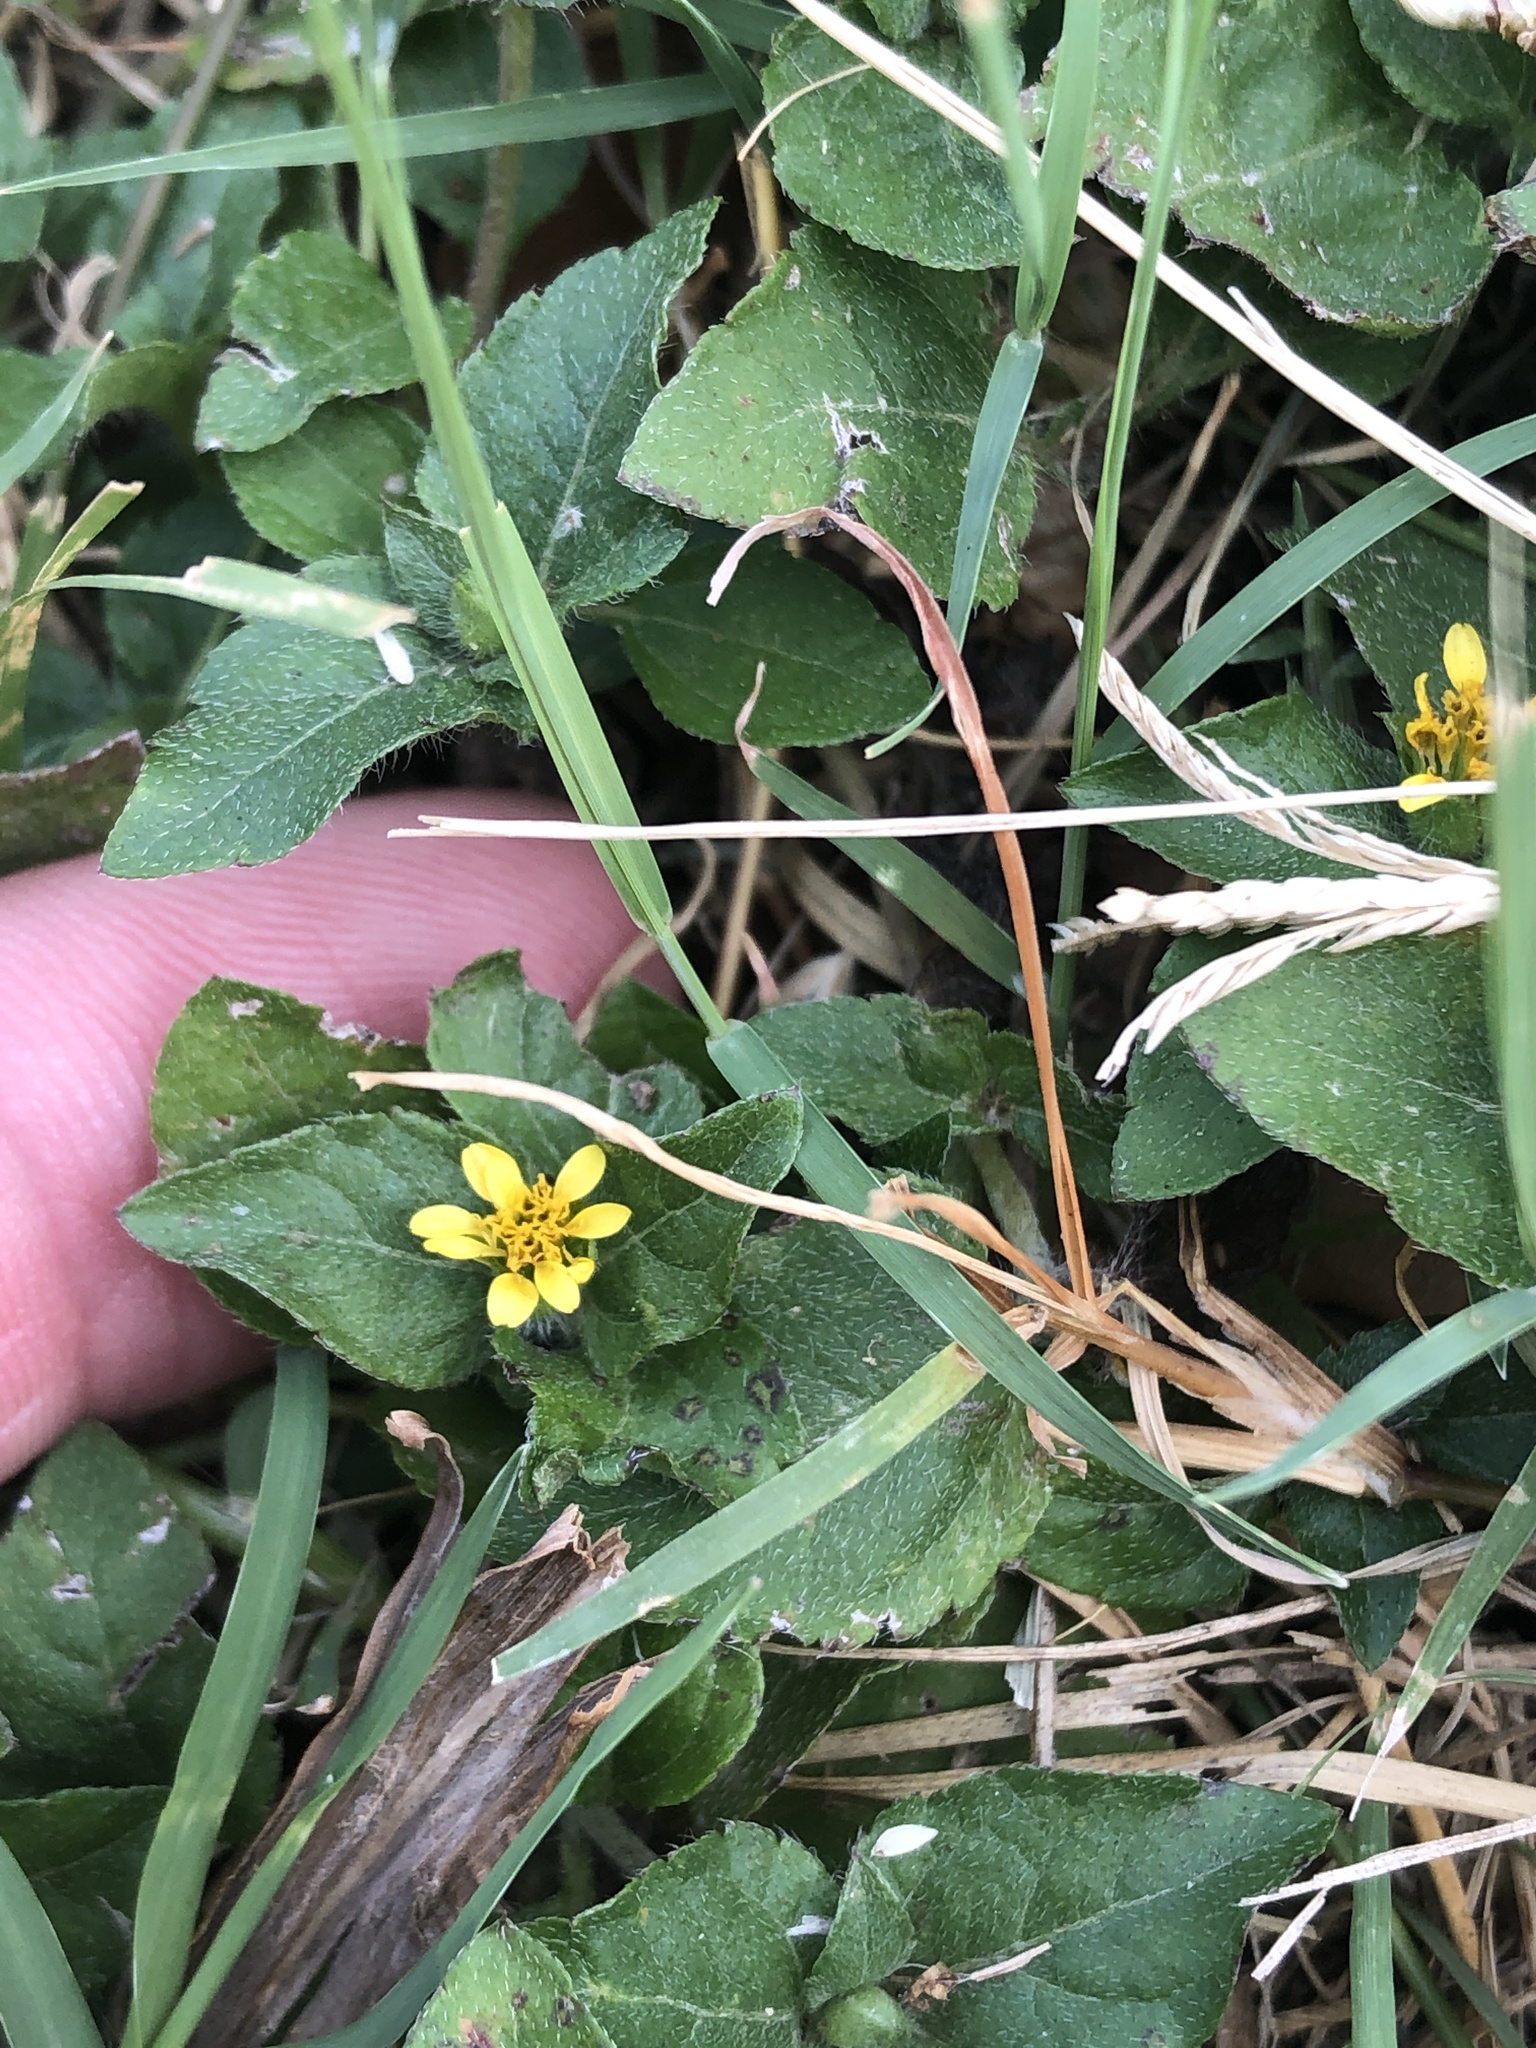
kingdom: Plantae
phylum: Tracheophyta
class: Magnoliopsida
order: Asterales
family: Asteraceae
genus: Calyptocarpus
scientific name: Calyptocarpus vialis
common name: Straggler daisy
